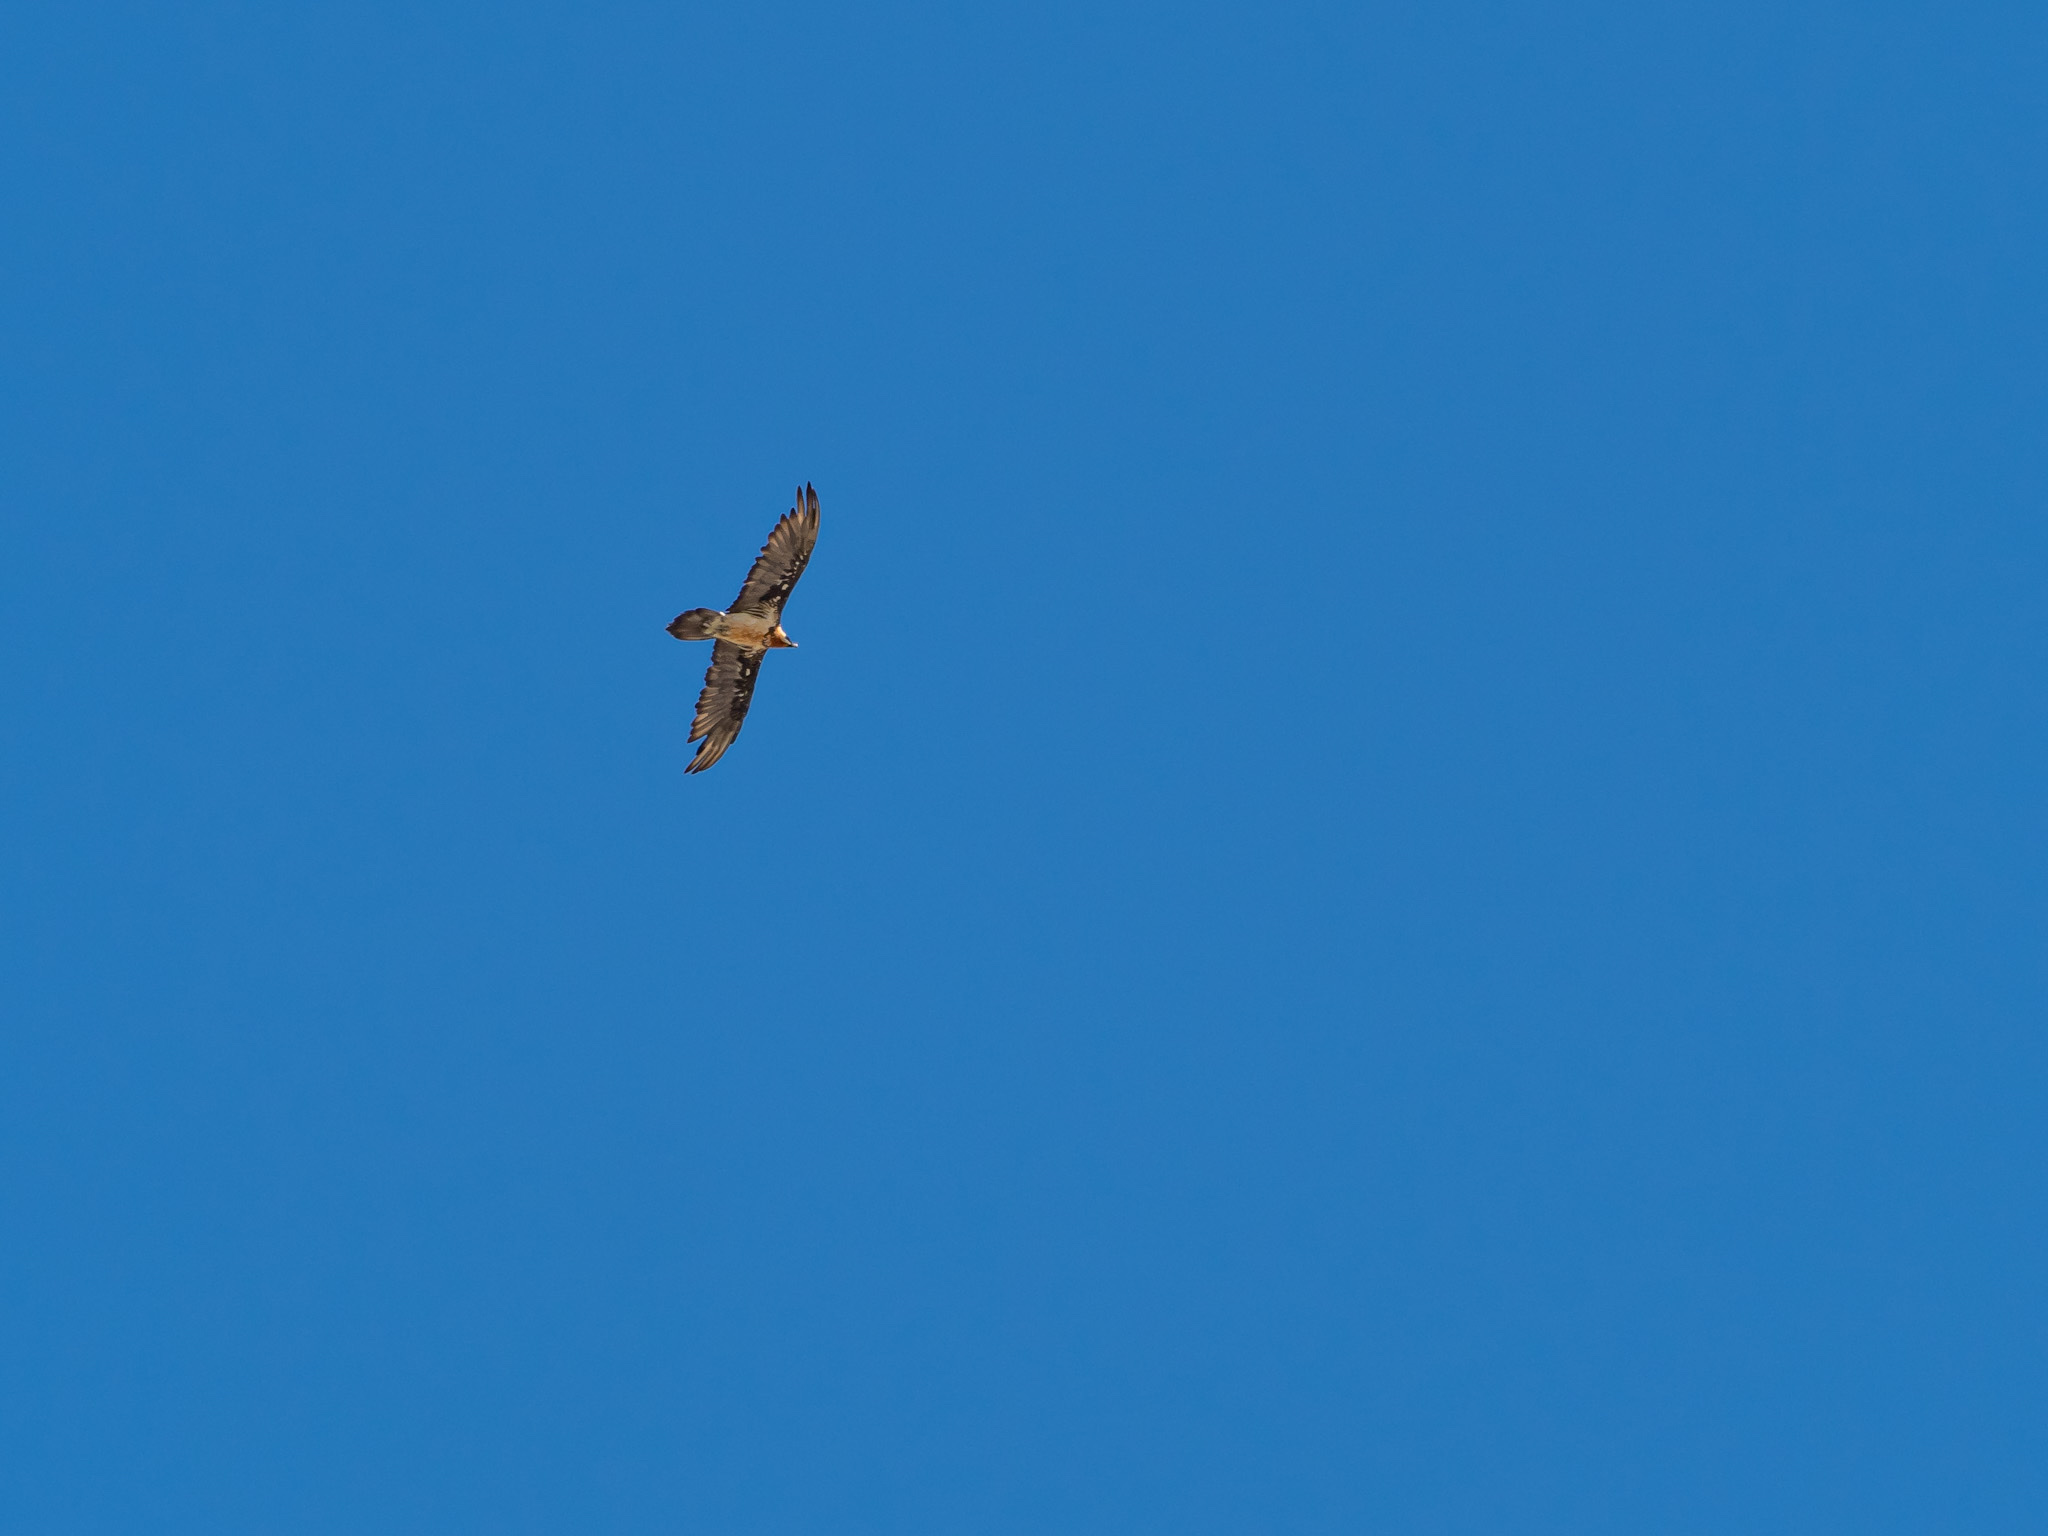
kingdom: Animalia
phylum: Chordata
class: Aves
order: Accipitriformes
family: Accipitridae
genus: Gypaetus
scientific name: Gypaetus barbatus
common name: Bearded vulture
